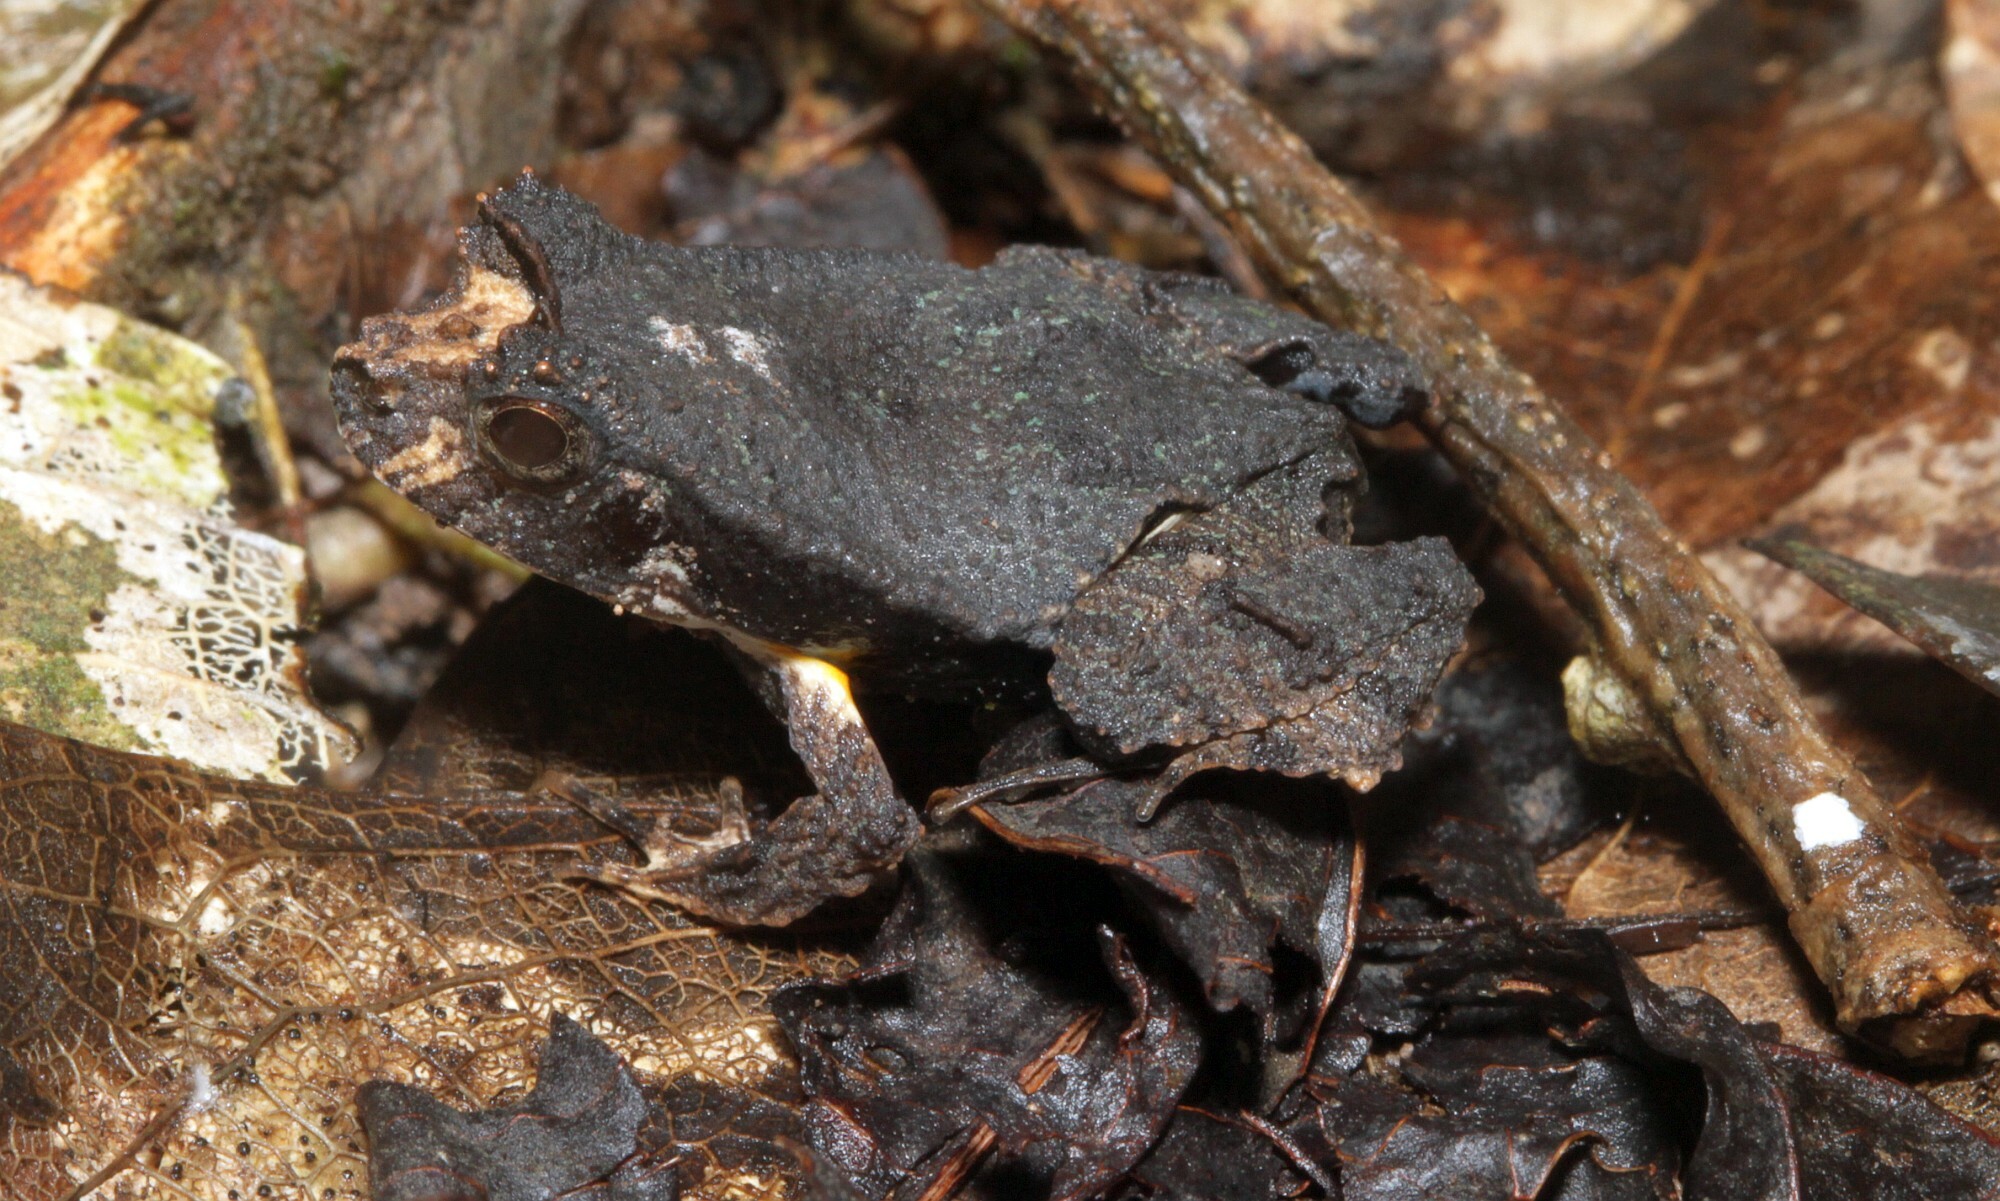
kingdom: Animalia
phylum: Chordata
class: Amphibia
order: Anura
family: Leptodactylidae
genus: Edalorhina
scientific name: Edalorhina perezi
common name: Perez’s snouted frog
